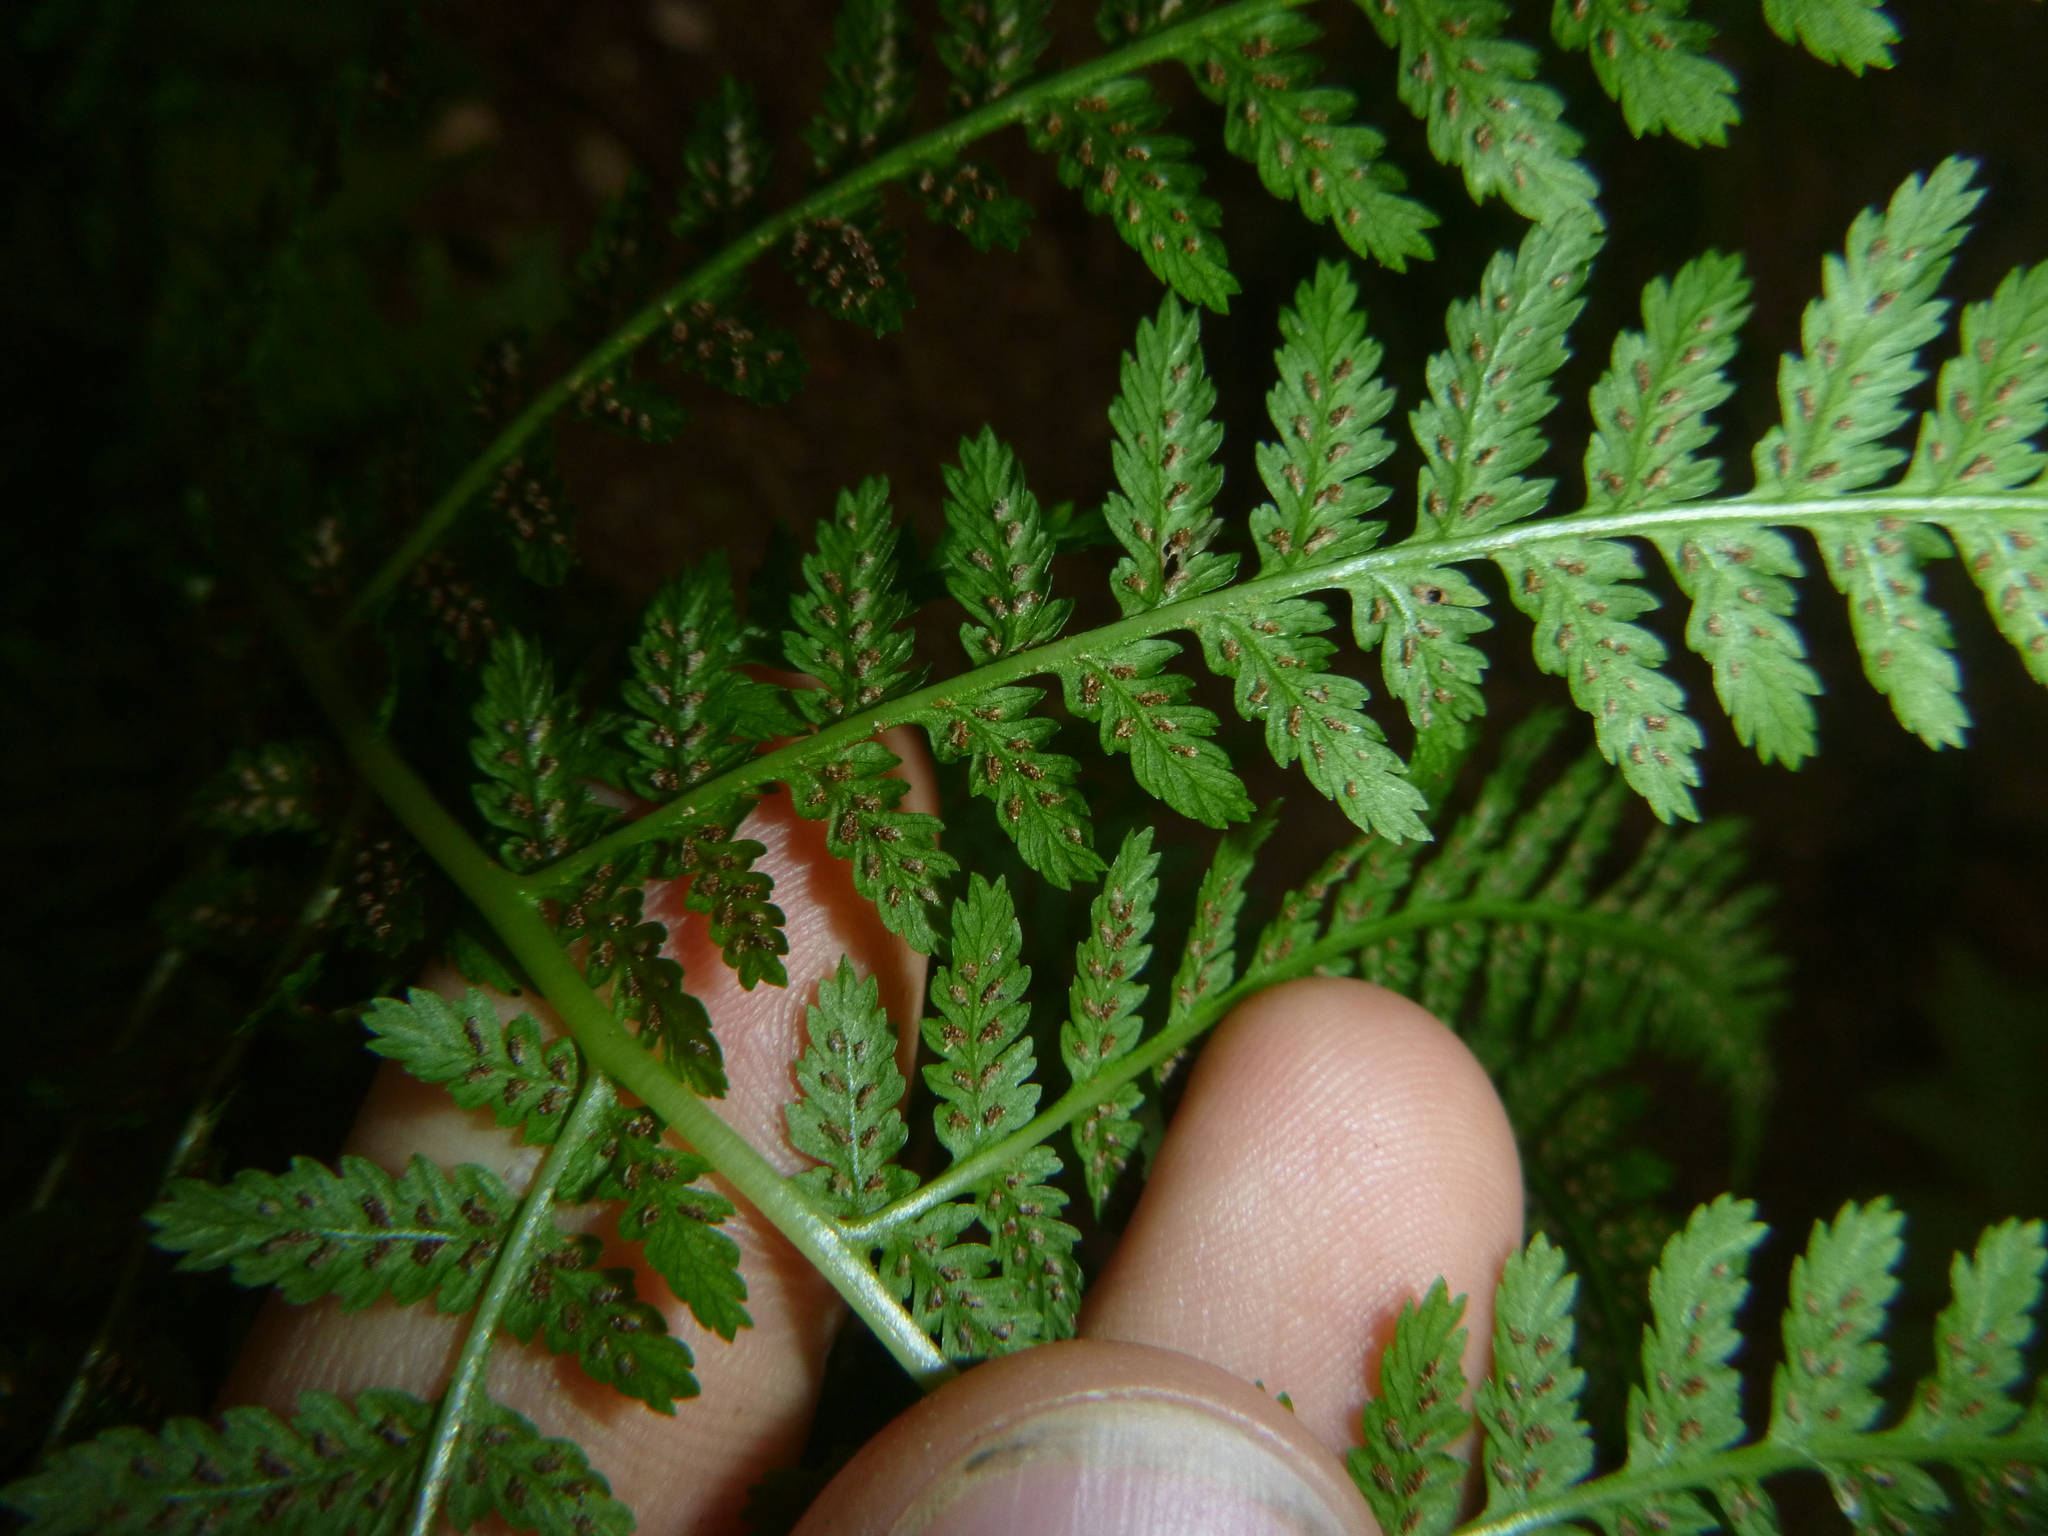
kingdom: Plantae
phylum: Tracheophyta
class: Polypodiopsida
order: Polypodiales
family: Athyriaceae
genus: Athyrium
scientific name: Athyrium filix-femina
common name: Lady fern
